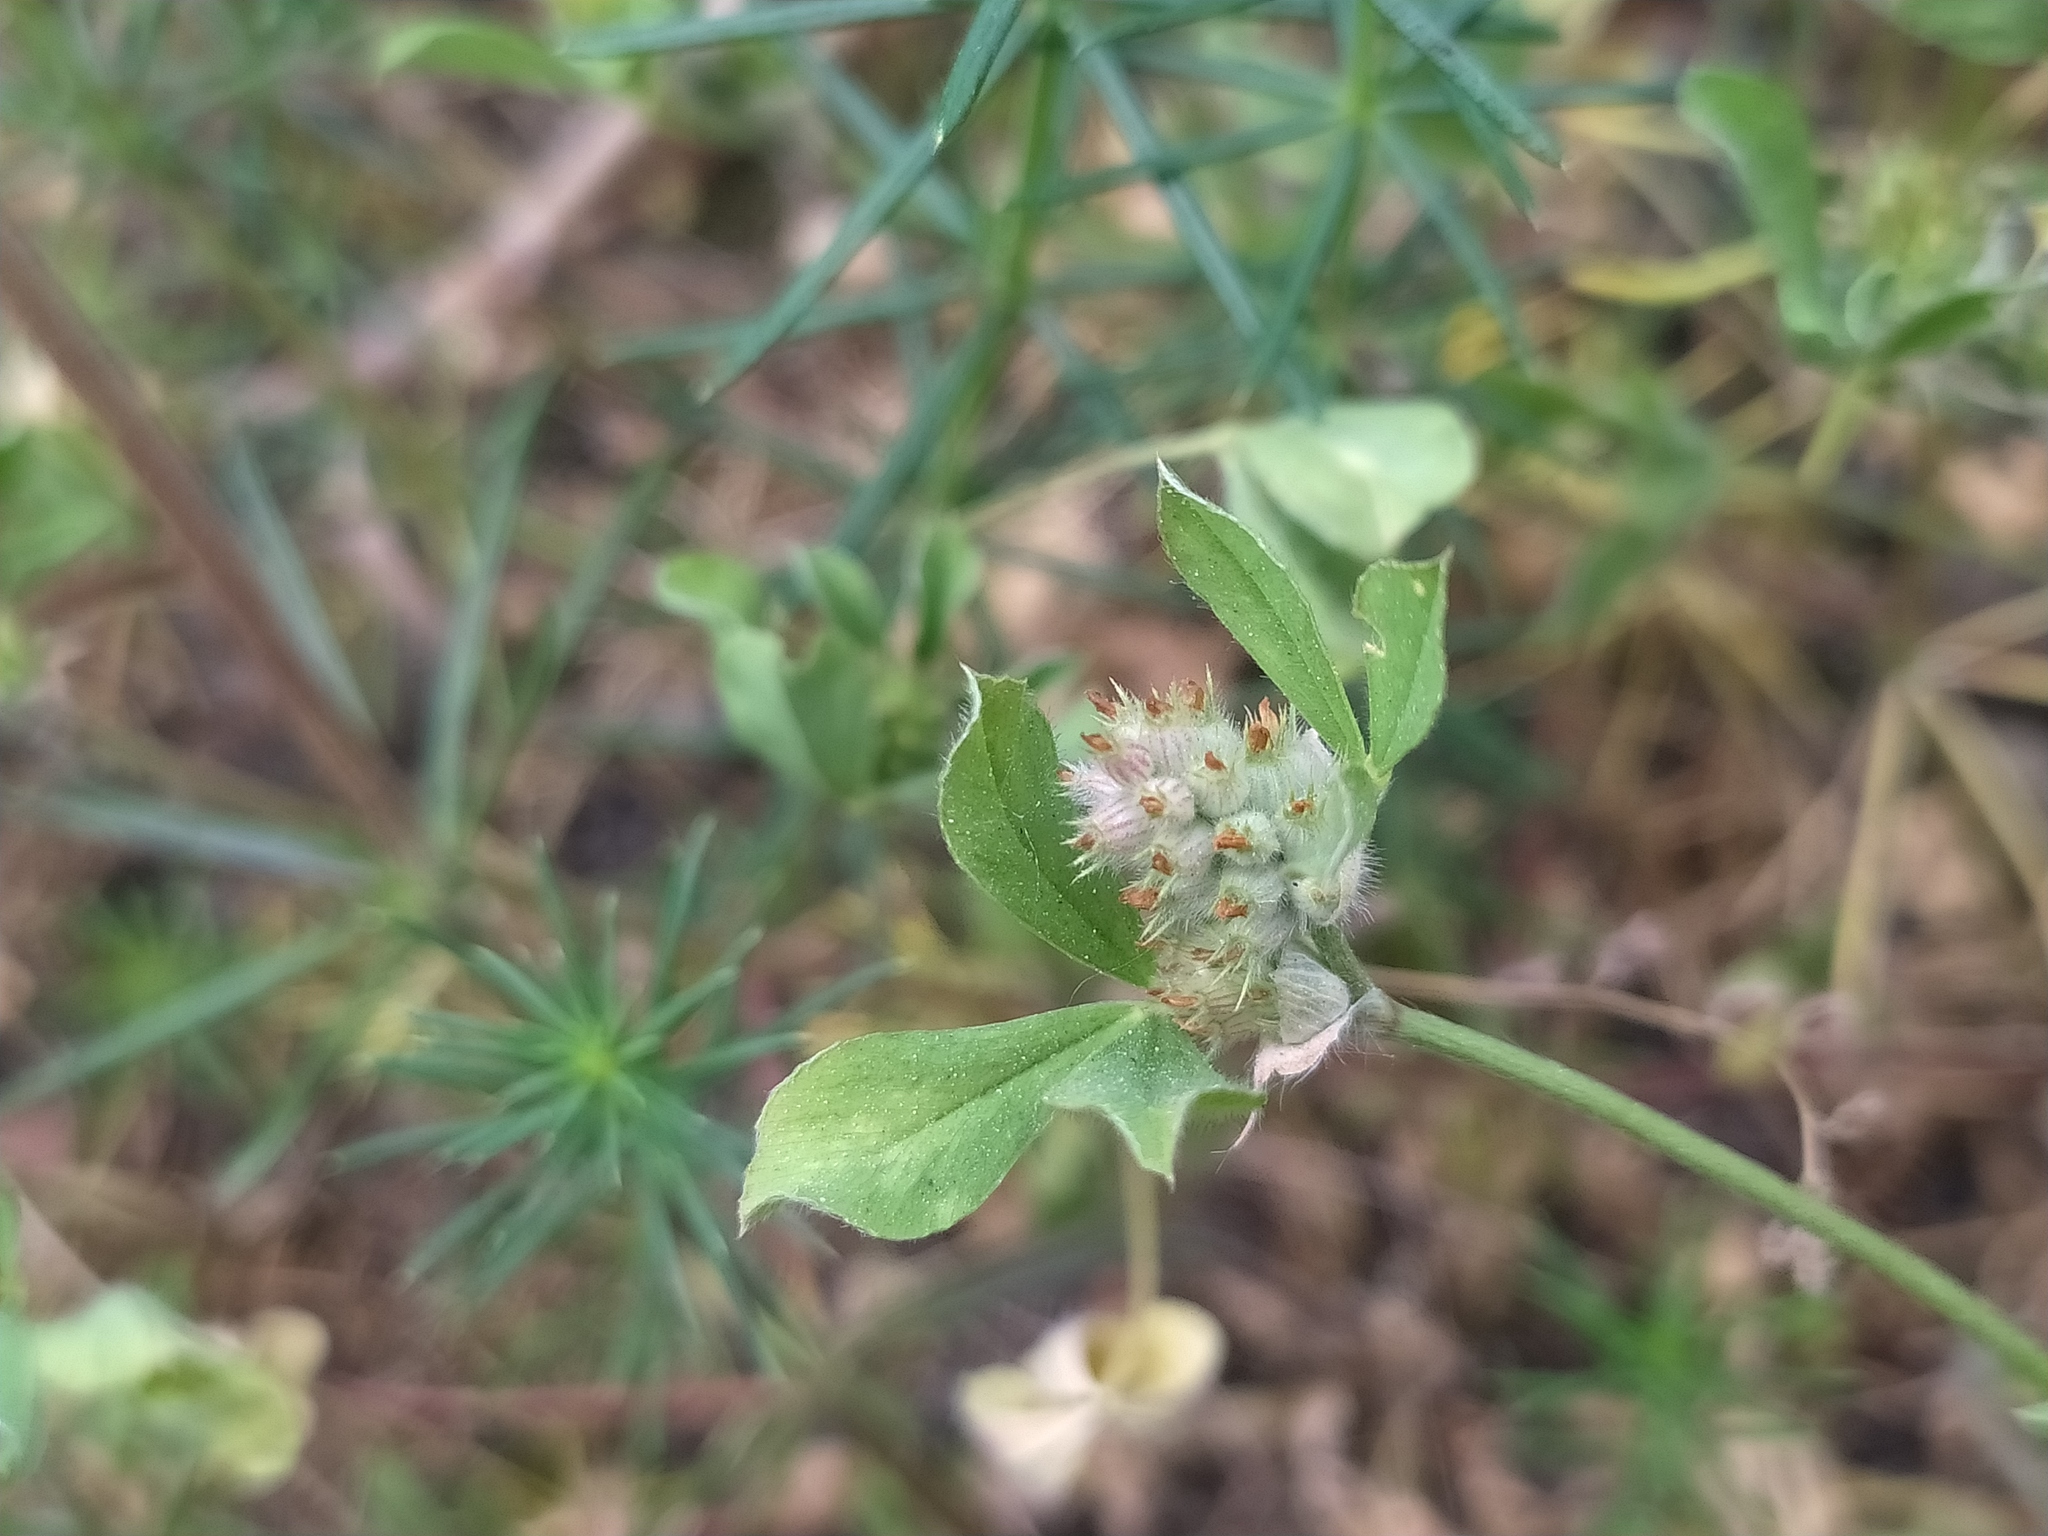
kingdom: Plantae
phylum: Tracheophyta
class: Magnoliopsida
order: Fabales
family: Fabaceae
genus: Trifolium
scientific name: Trifolium striatum
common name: Knotted clover
